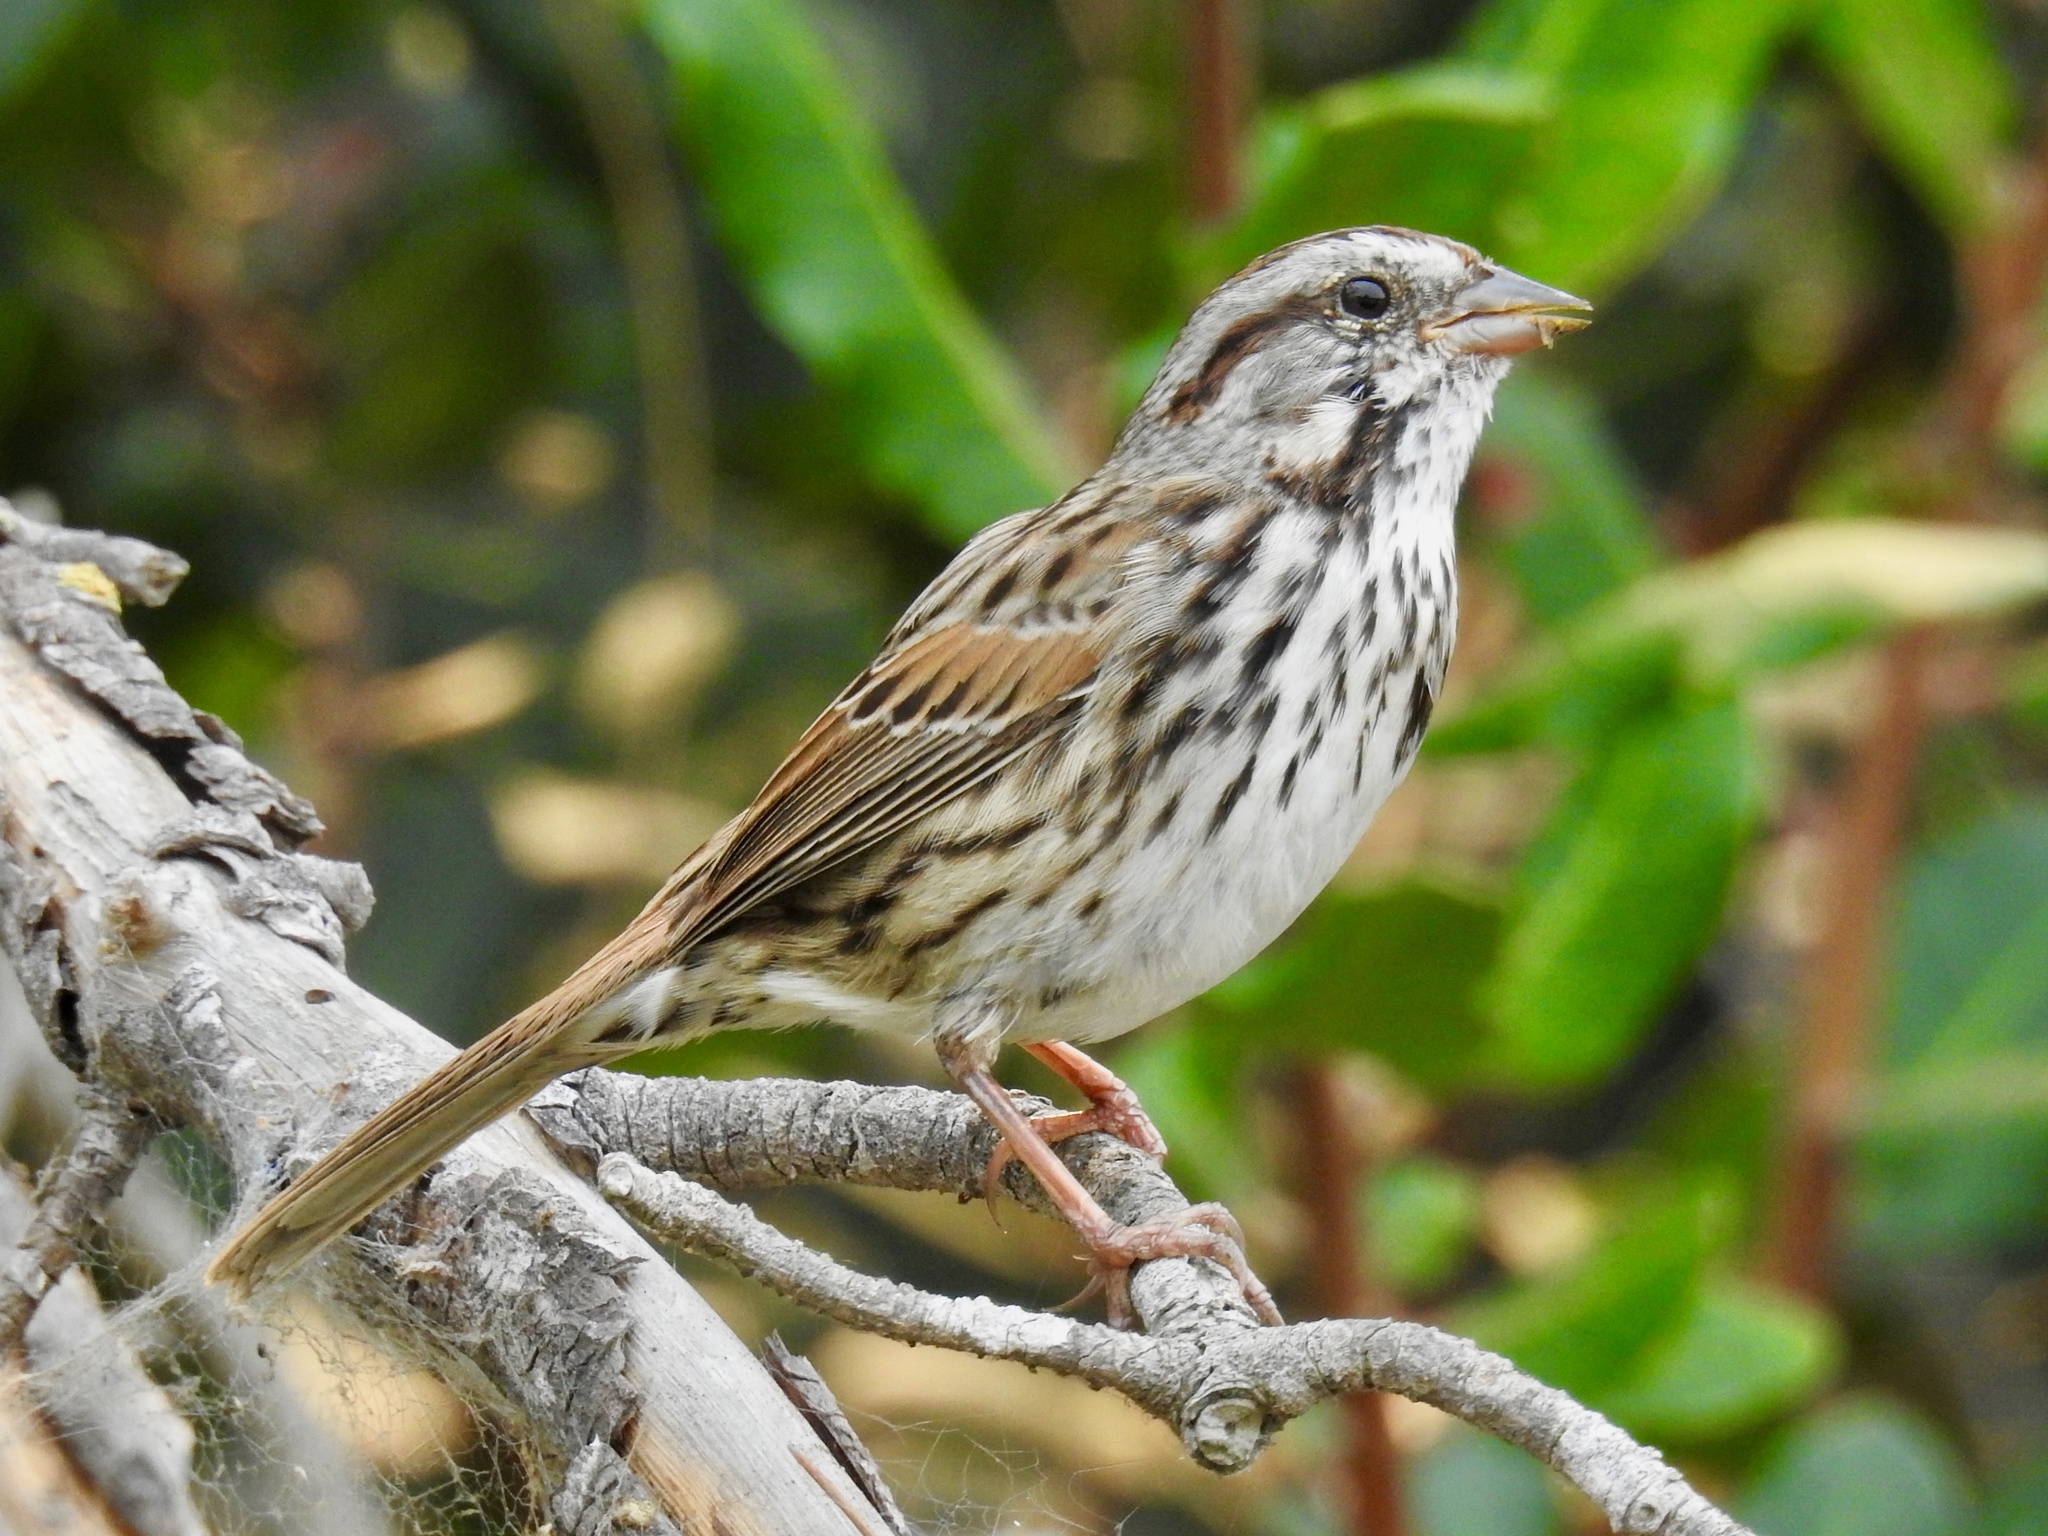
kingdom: Animalia
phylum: Chordata
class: Aves
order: Passeriformes
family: Passerellidae
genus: Melospiza
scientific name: Melospiza melodia
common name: Song sparrow
